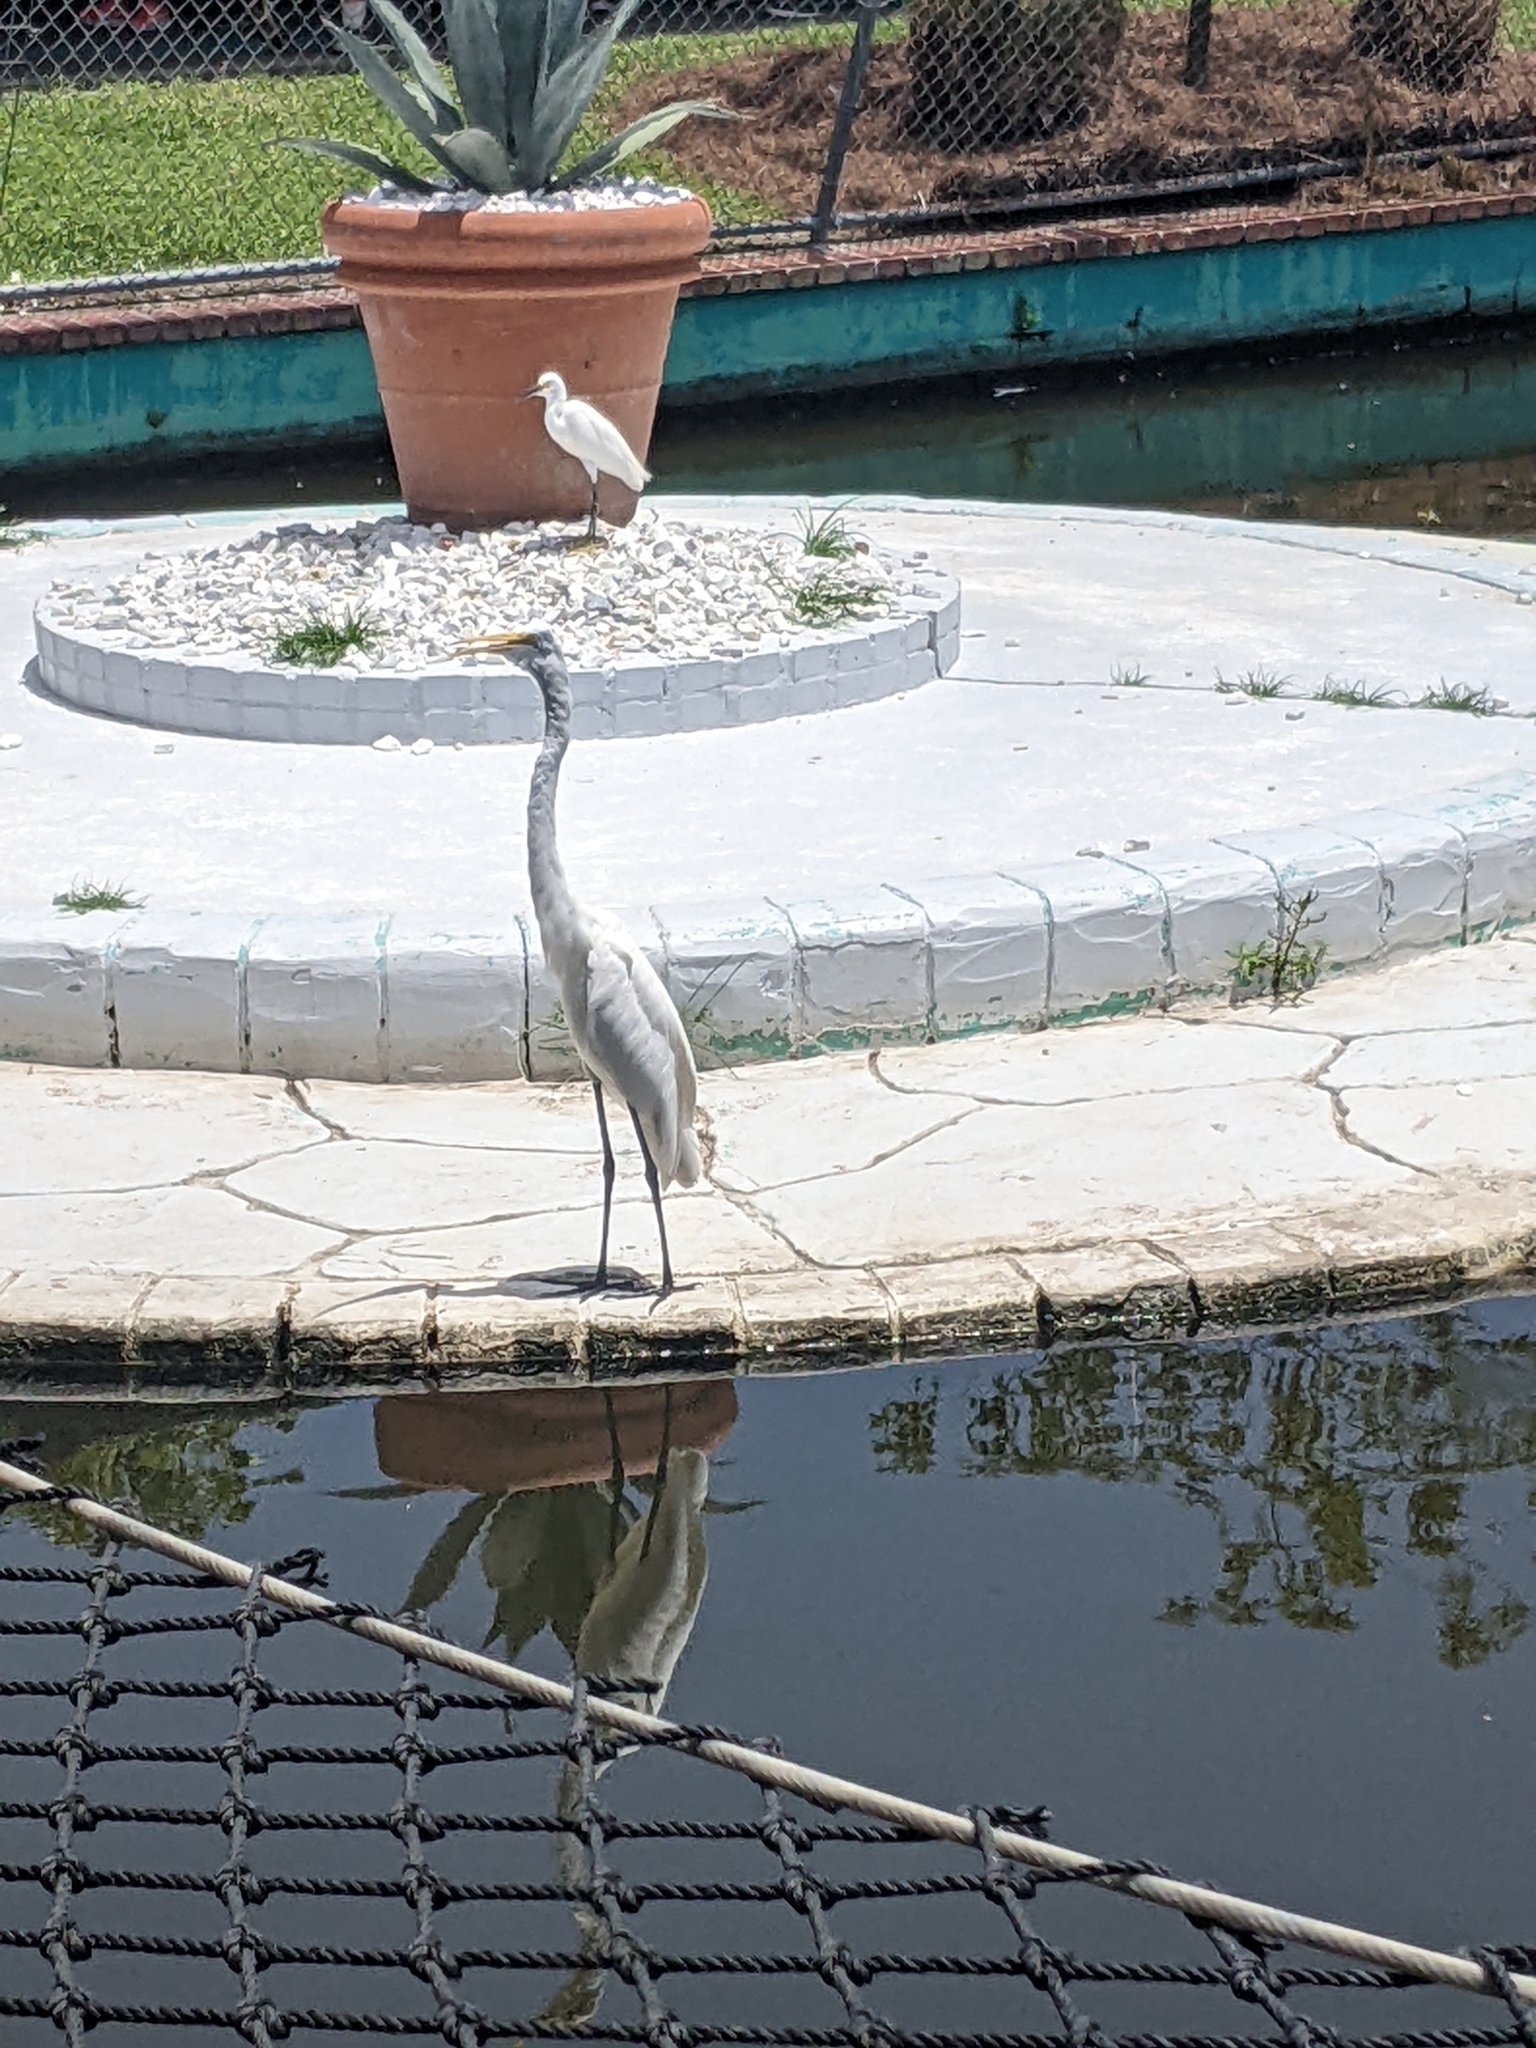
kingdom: Animalia
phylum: Chordata
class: Aves
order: Pelecaniformes
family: Ardeidae
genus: Ardea
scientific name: Ardea alba
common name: Great egret
